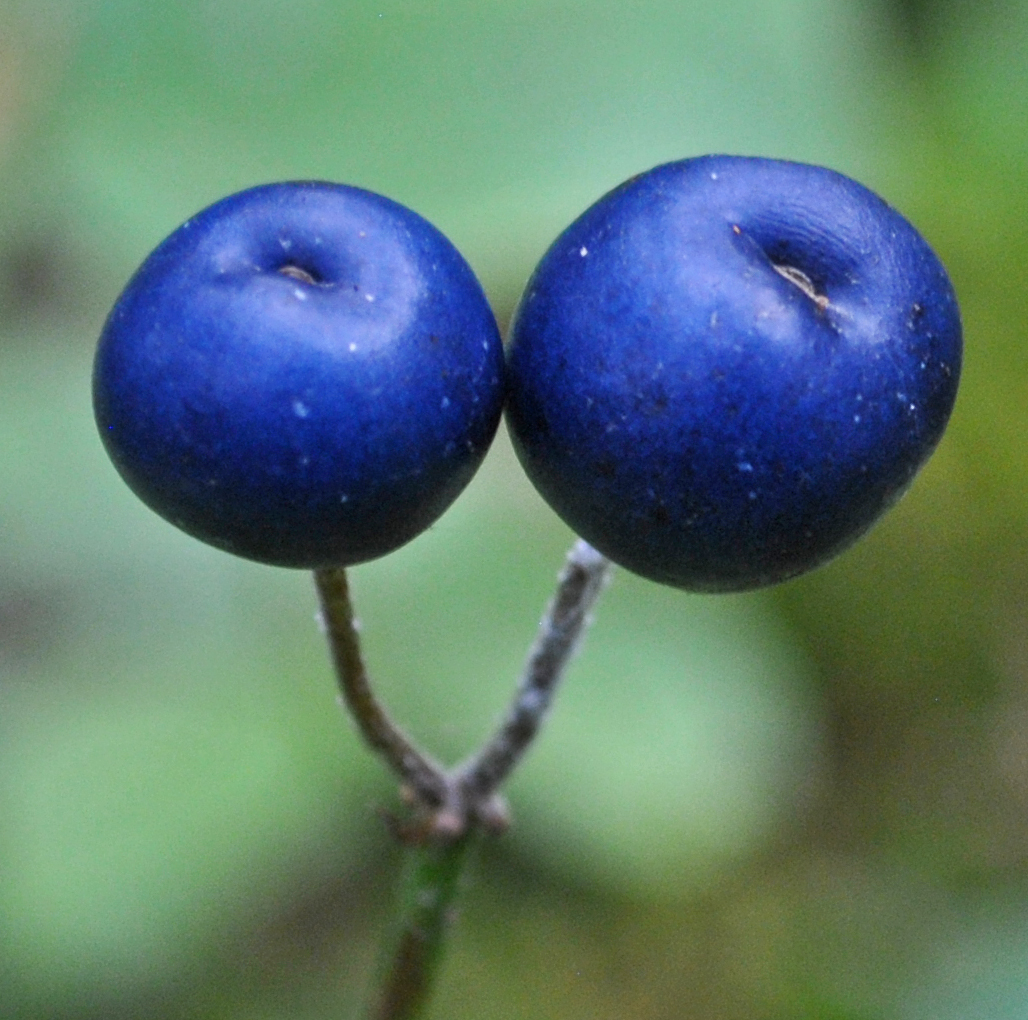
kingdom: Plantae
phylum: Tracheophyta
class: Liliopsida
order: Liliales
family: Liliaceae
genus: Clintonia
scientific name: Clintonia borealis
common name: Yellow clintonia
